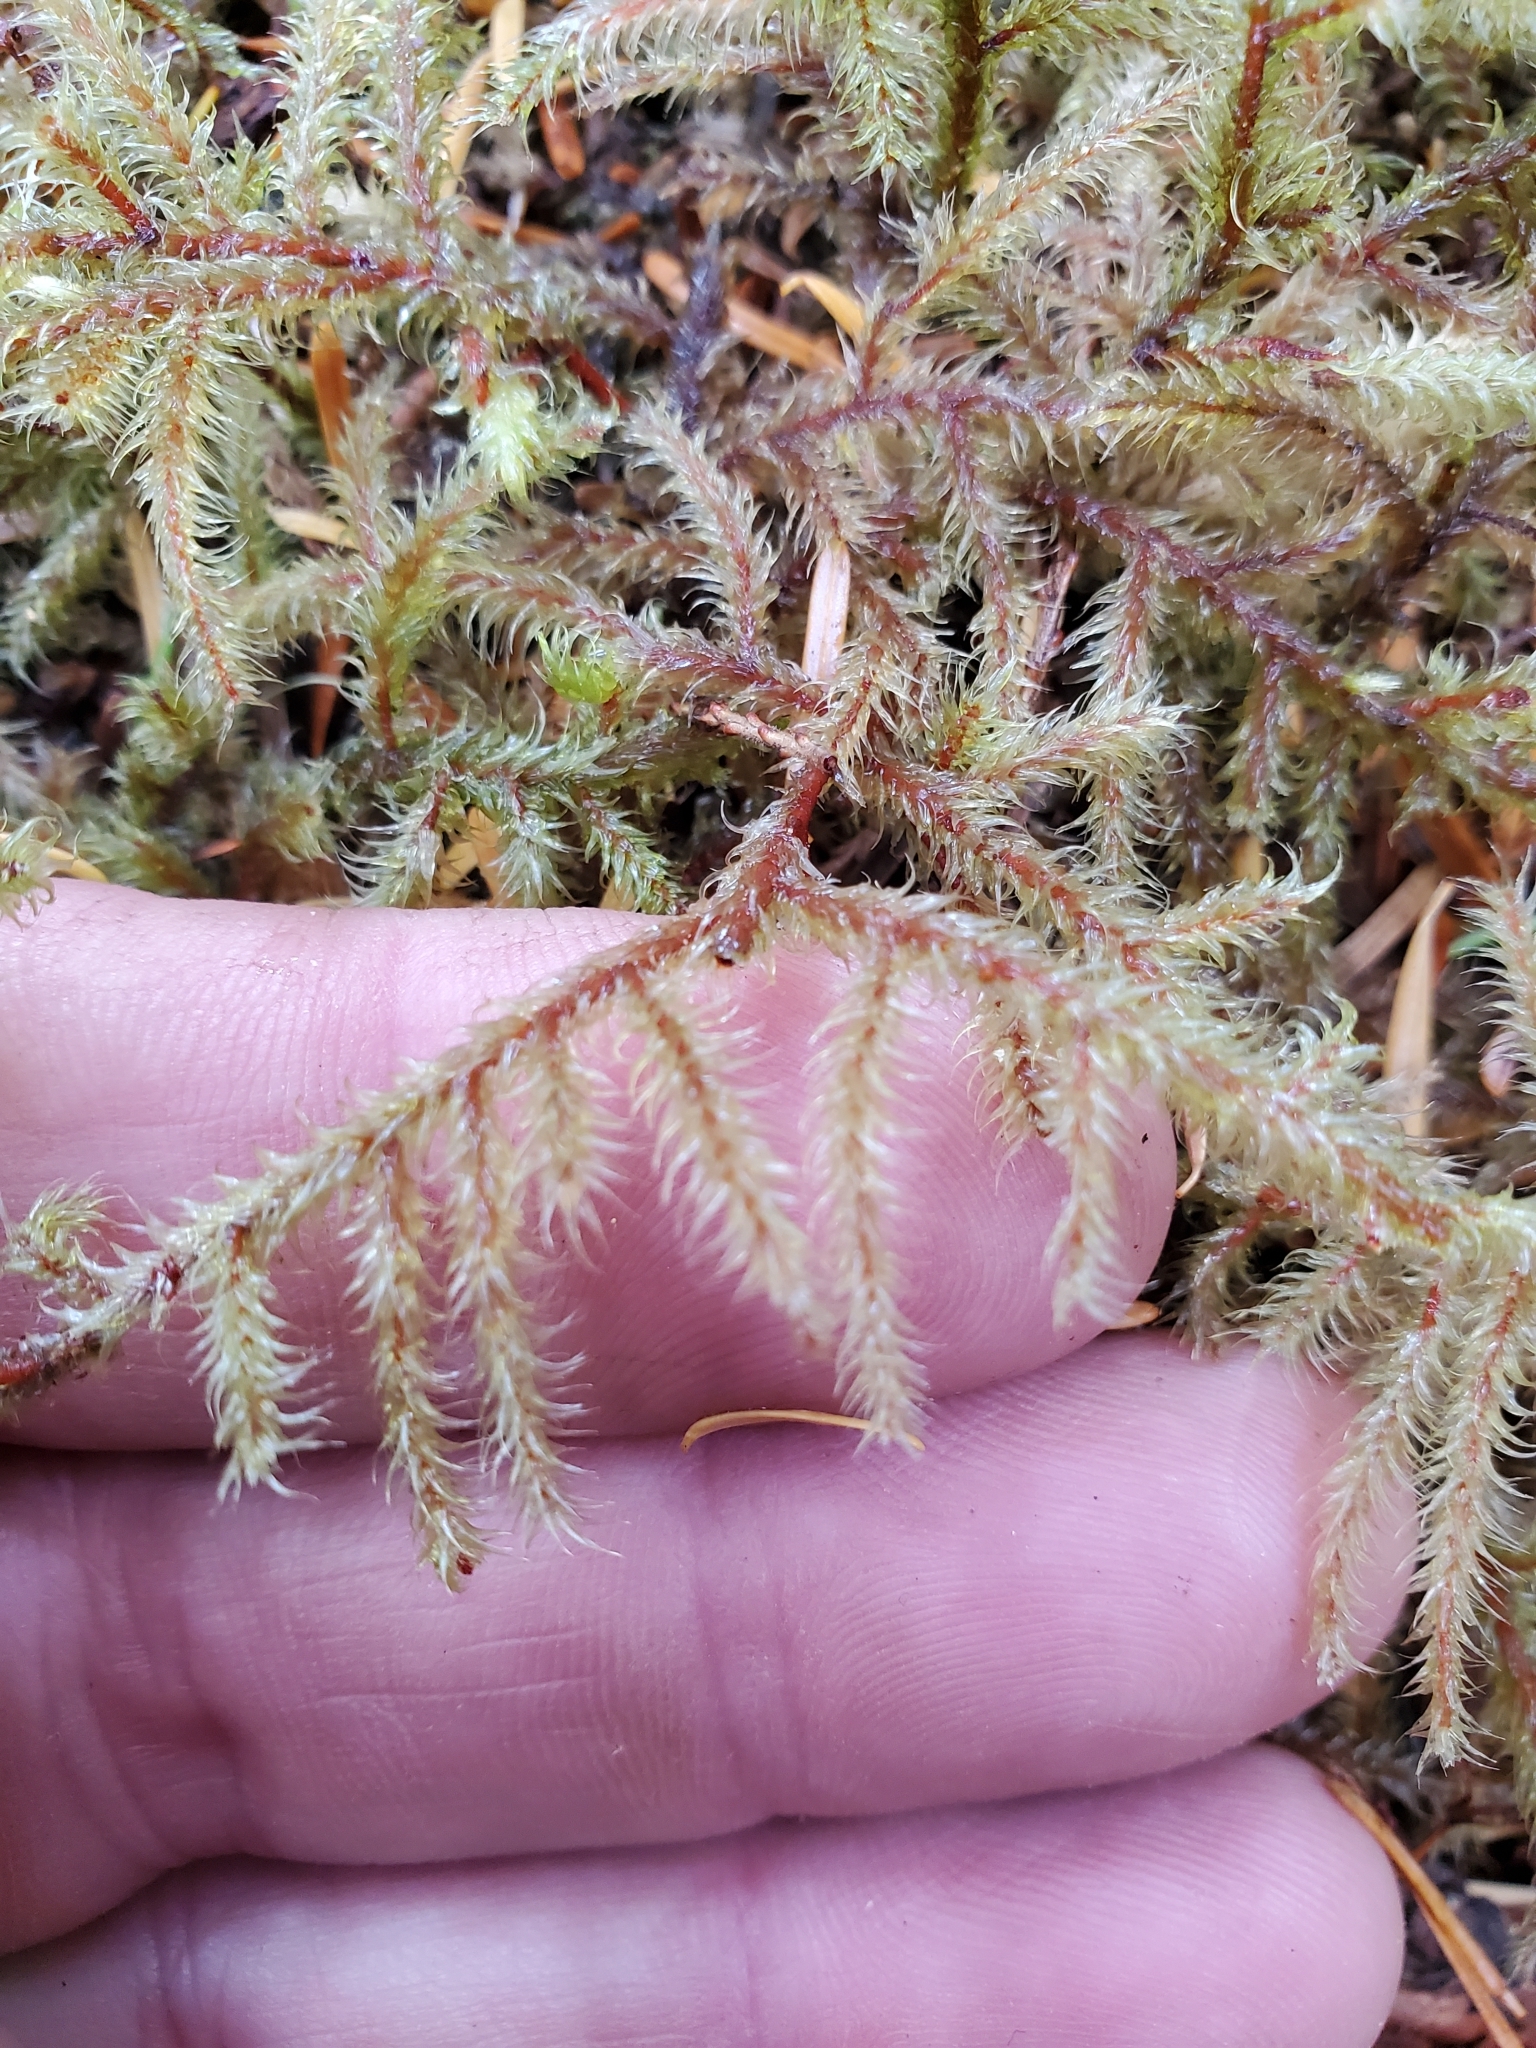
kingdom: Plantae
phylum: Bryophyta
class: Bryopsida
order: Hypnales
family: Hylocomiaceae
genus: Rhytidiadelphus
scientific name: Rhytidiadelphus loreus
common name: Lanky moss
